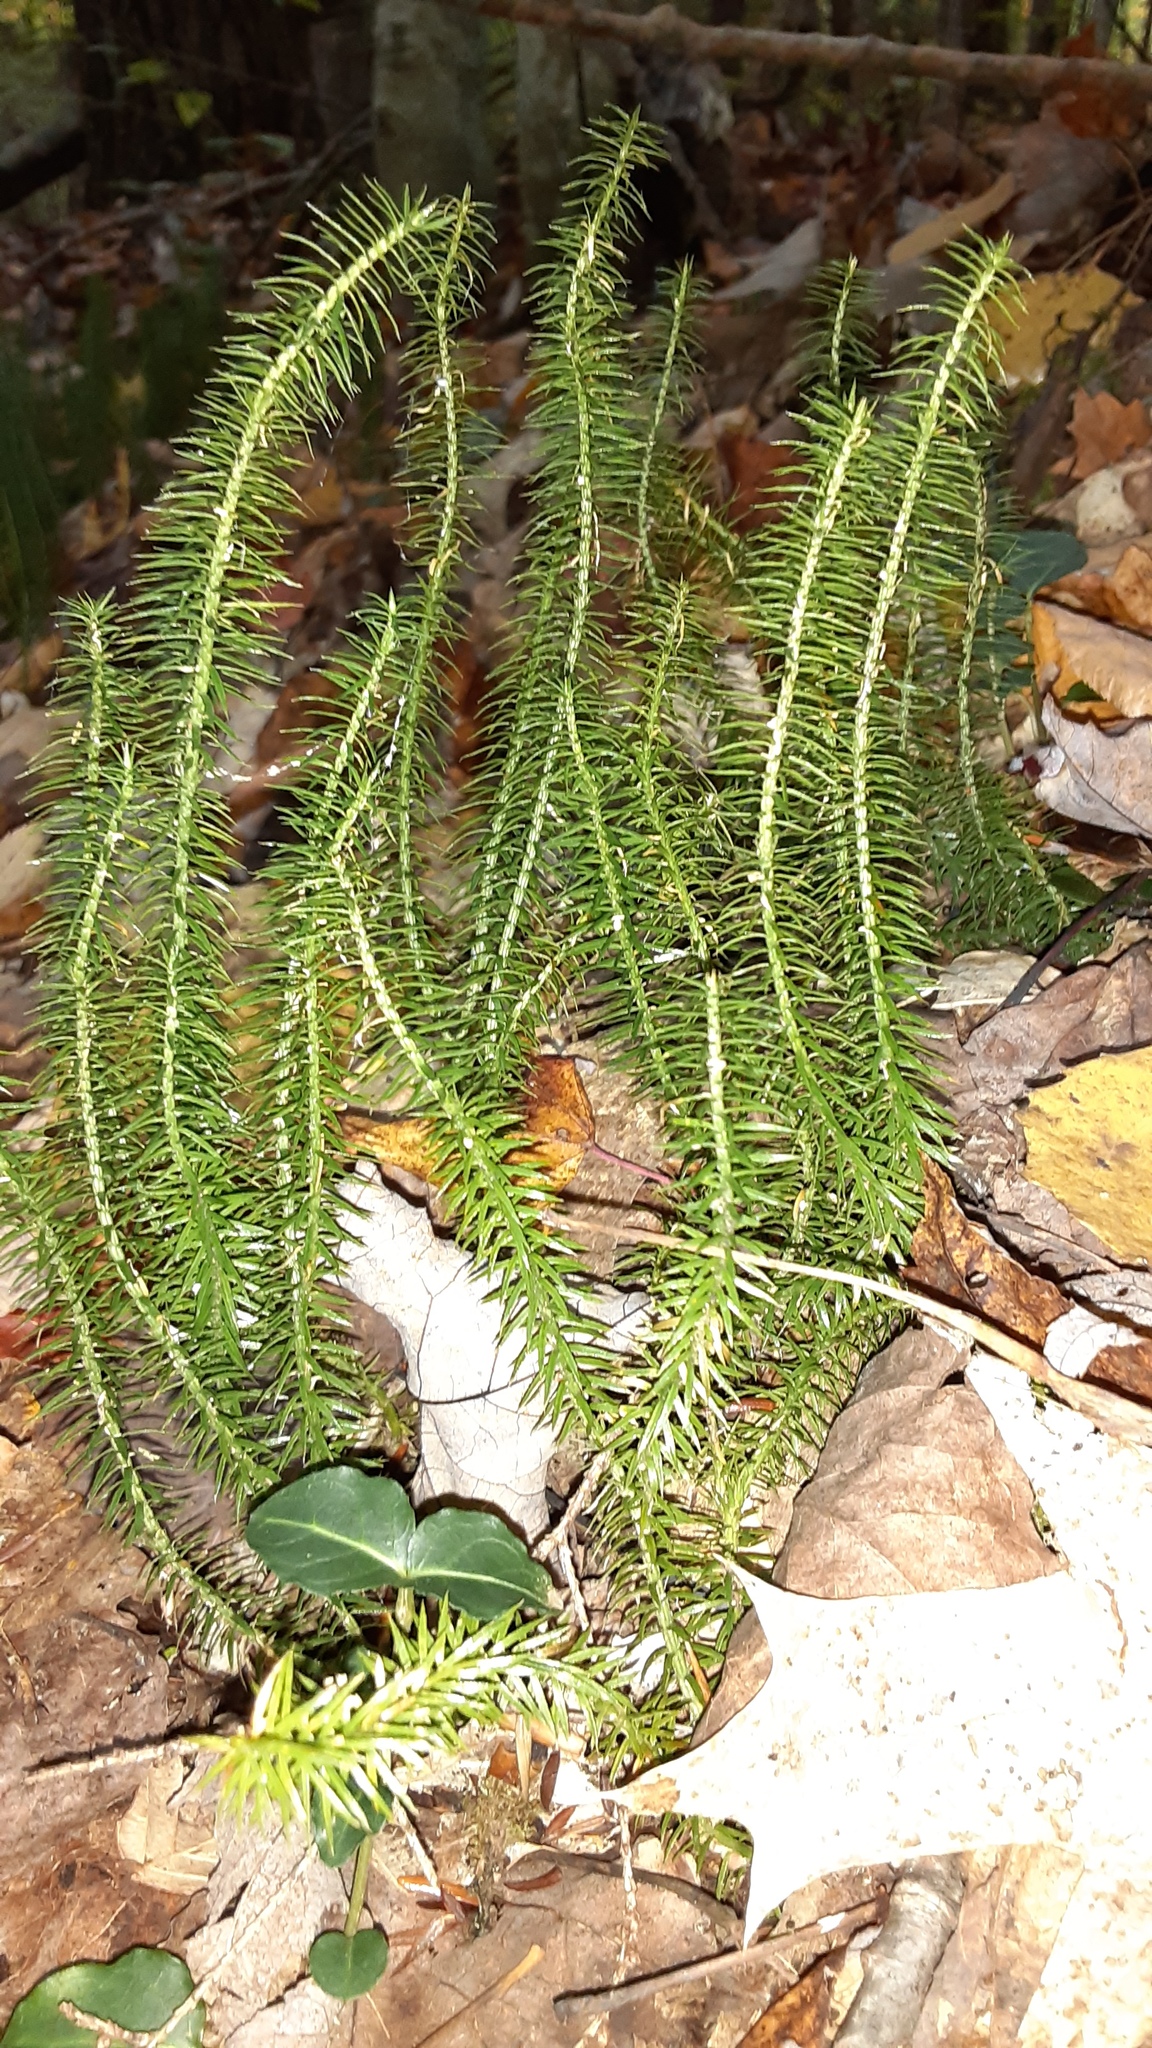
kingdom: Plantae
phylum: Tracheophyta
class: Lycopodiopsida
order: Lycopodiales
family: Lycopodiaceae
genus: Spinulum
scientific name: Spinulum annotinum
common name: Interrupted club-moss
